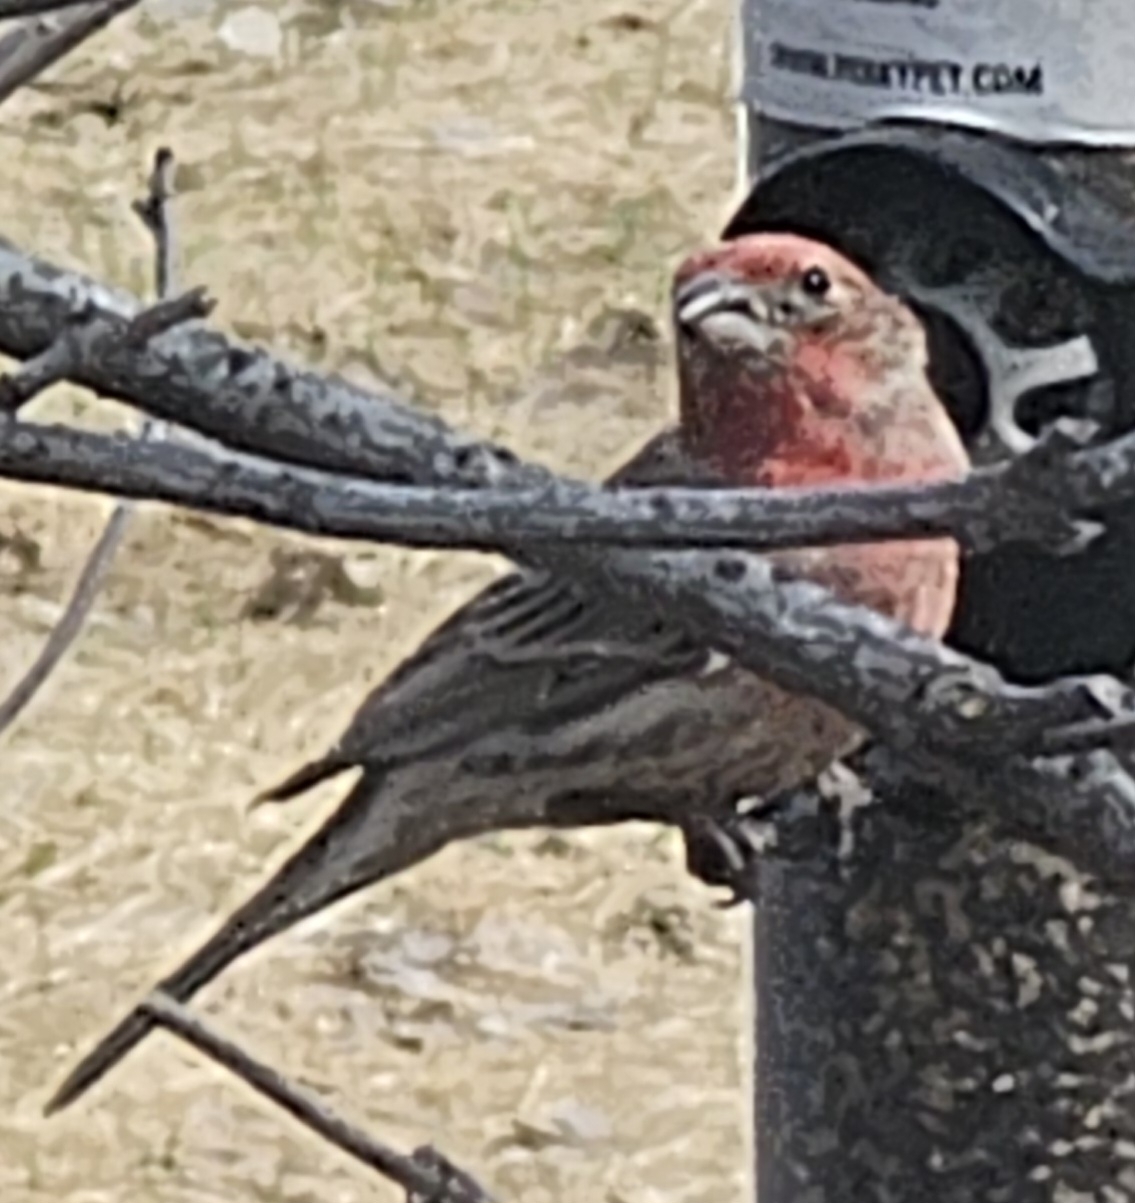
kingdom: Animalia
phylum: Chordata
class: Aves
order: Passeriformes
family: Fringillidae
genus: Haemorhous
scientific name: Haemorhous mexicanus
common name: House finch
